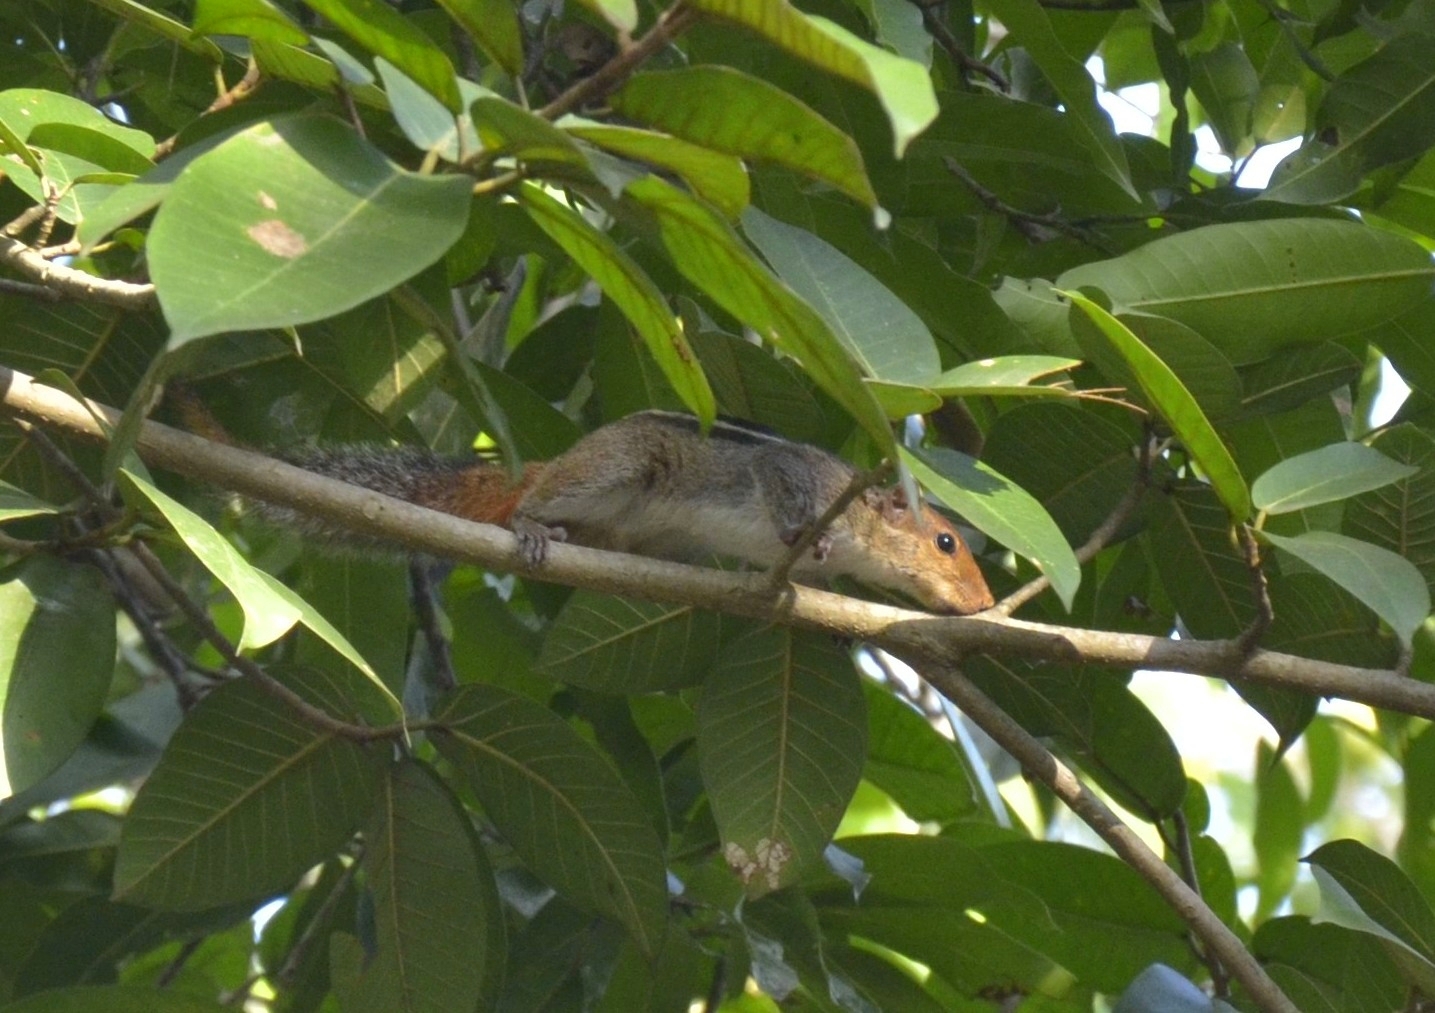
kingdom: Animalia
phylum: Chordata
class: Mammalia
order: Rodentia
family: Sciuridae
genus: Funambulus
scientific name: Funambulus tristriatus
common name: Jungle palm squirrel
